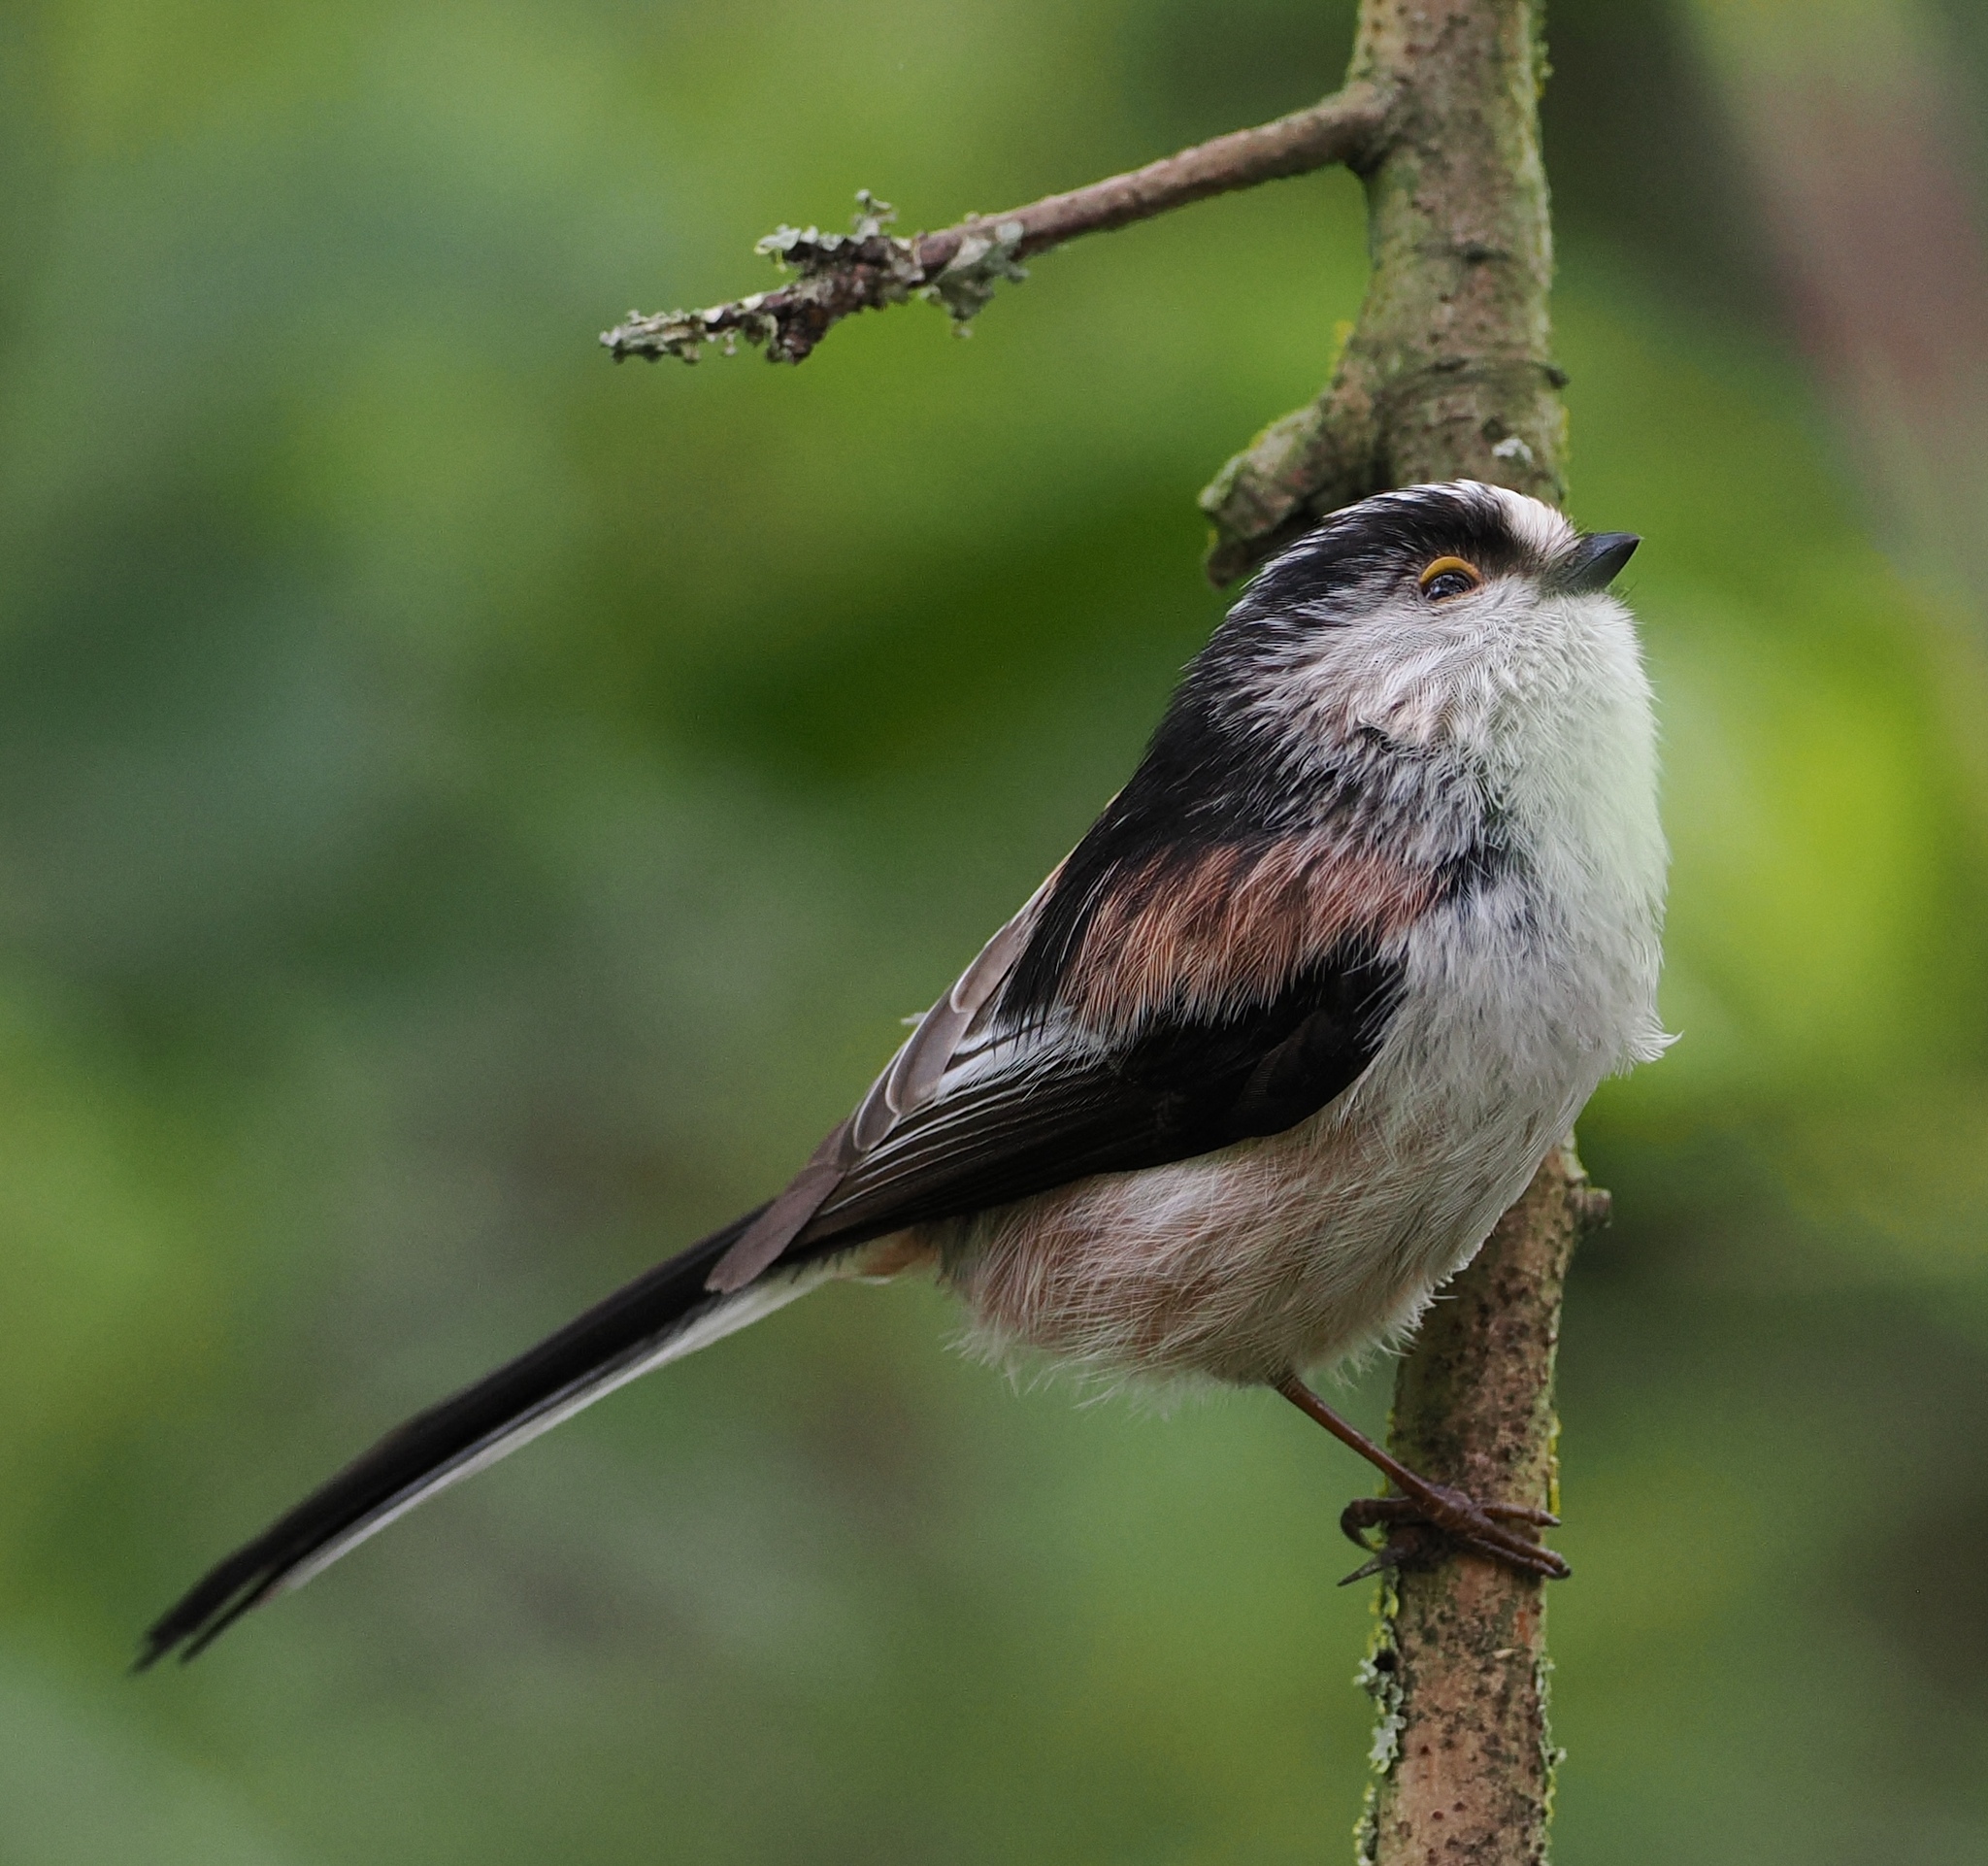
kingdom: Animalia
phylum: Chordata
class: Aves
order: Passeriformes
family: Aegithalidae
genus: Aegithalos
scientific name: Aegithalos caudatus
